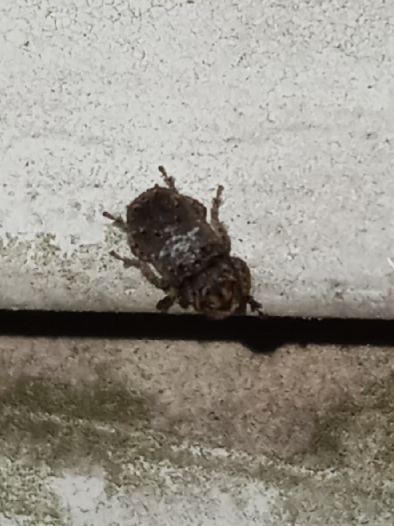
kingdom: Animalia
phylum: Arthropoda
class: Insecta
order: Coleoptera
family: Anthribidae
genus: Toxonotus
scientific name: Toxonotus cornutus
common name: Fungus weevil
